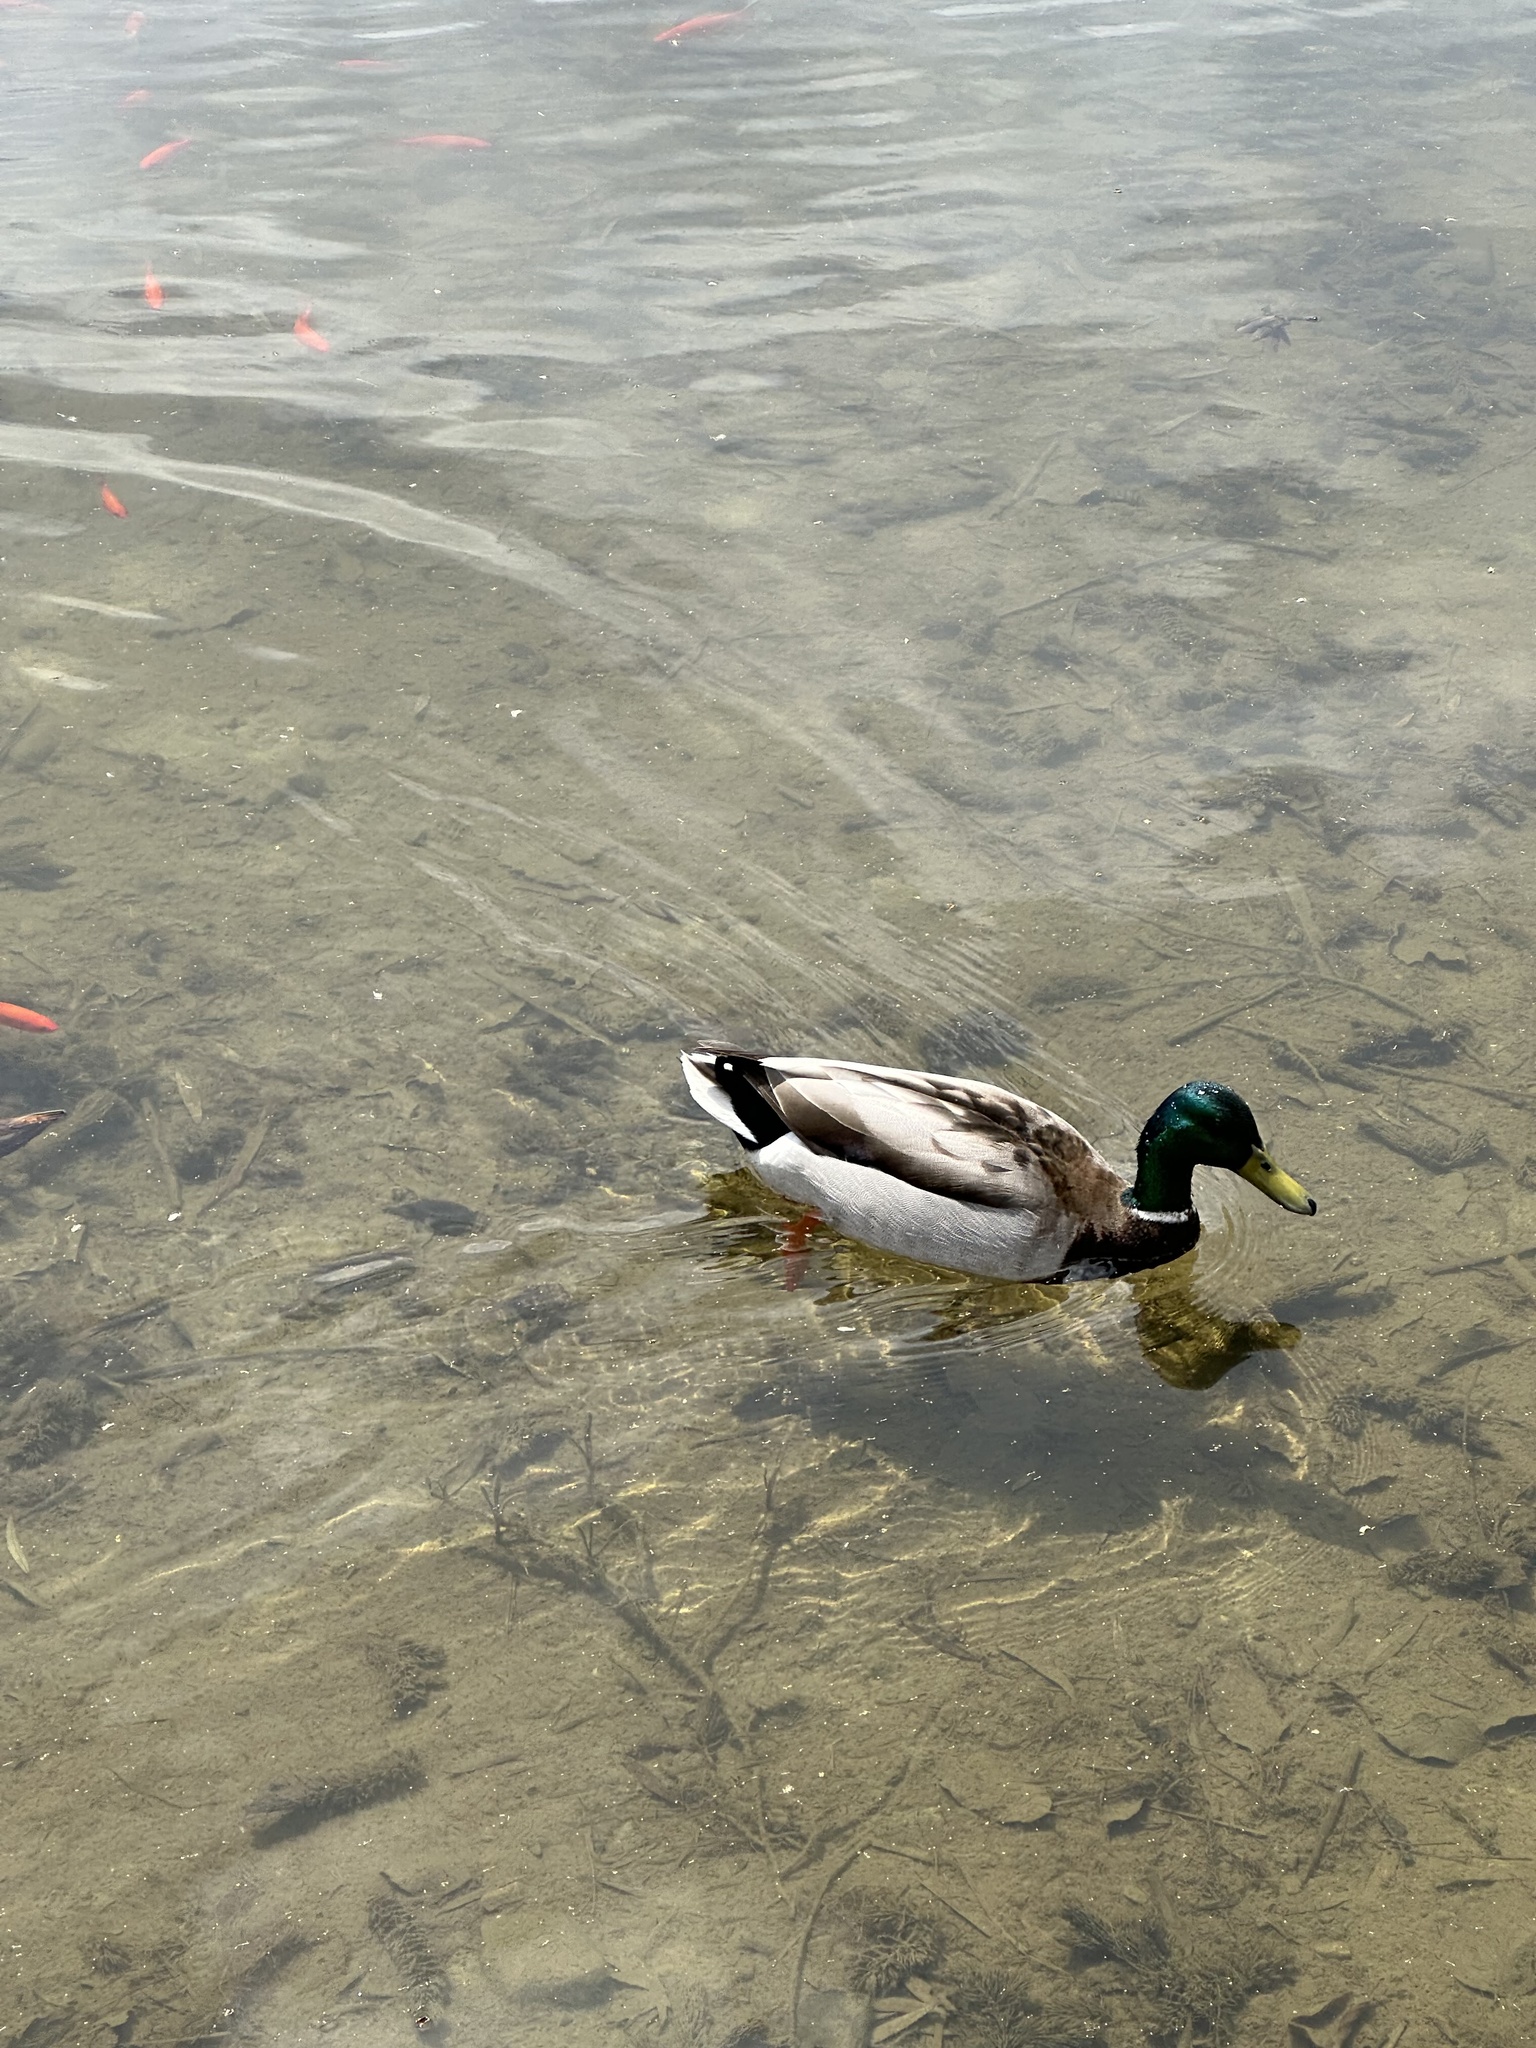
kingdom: Animalia
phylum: Chordata
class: Aves
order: Anseriformes
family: Anatidae
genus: Anas
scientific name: Anas platyrhynchos
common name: Mallard
